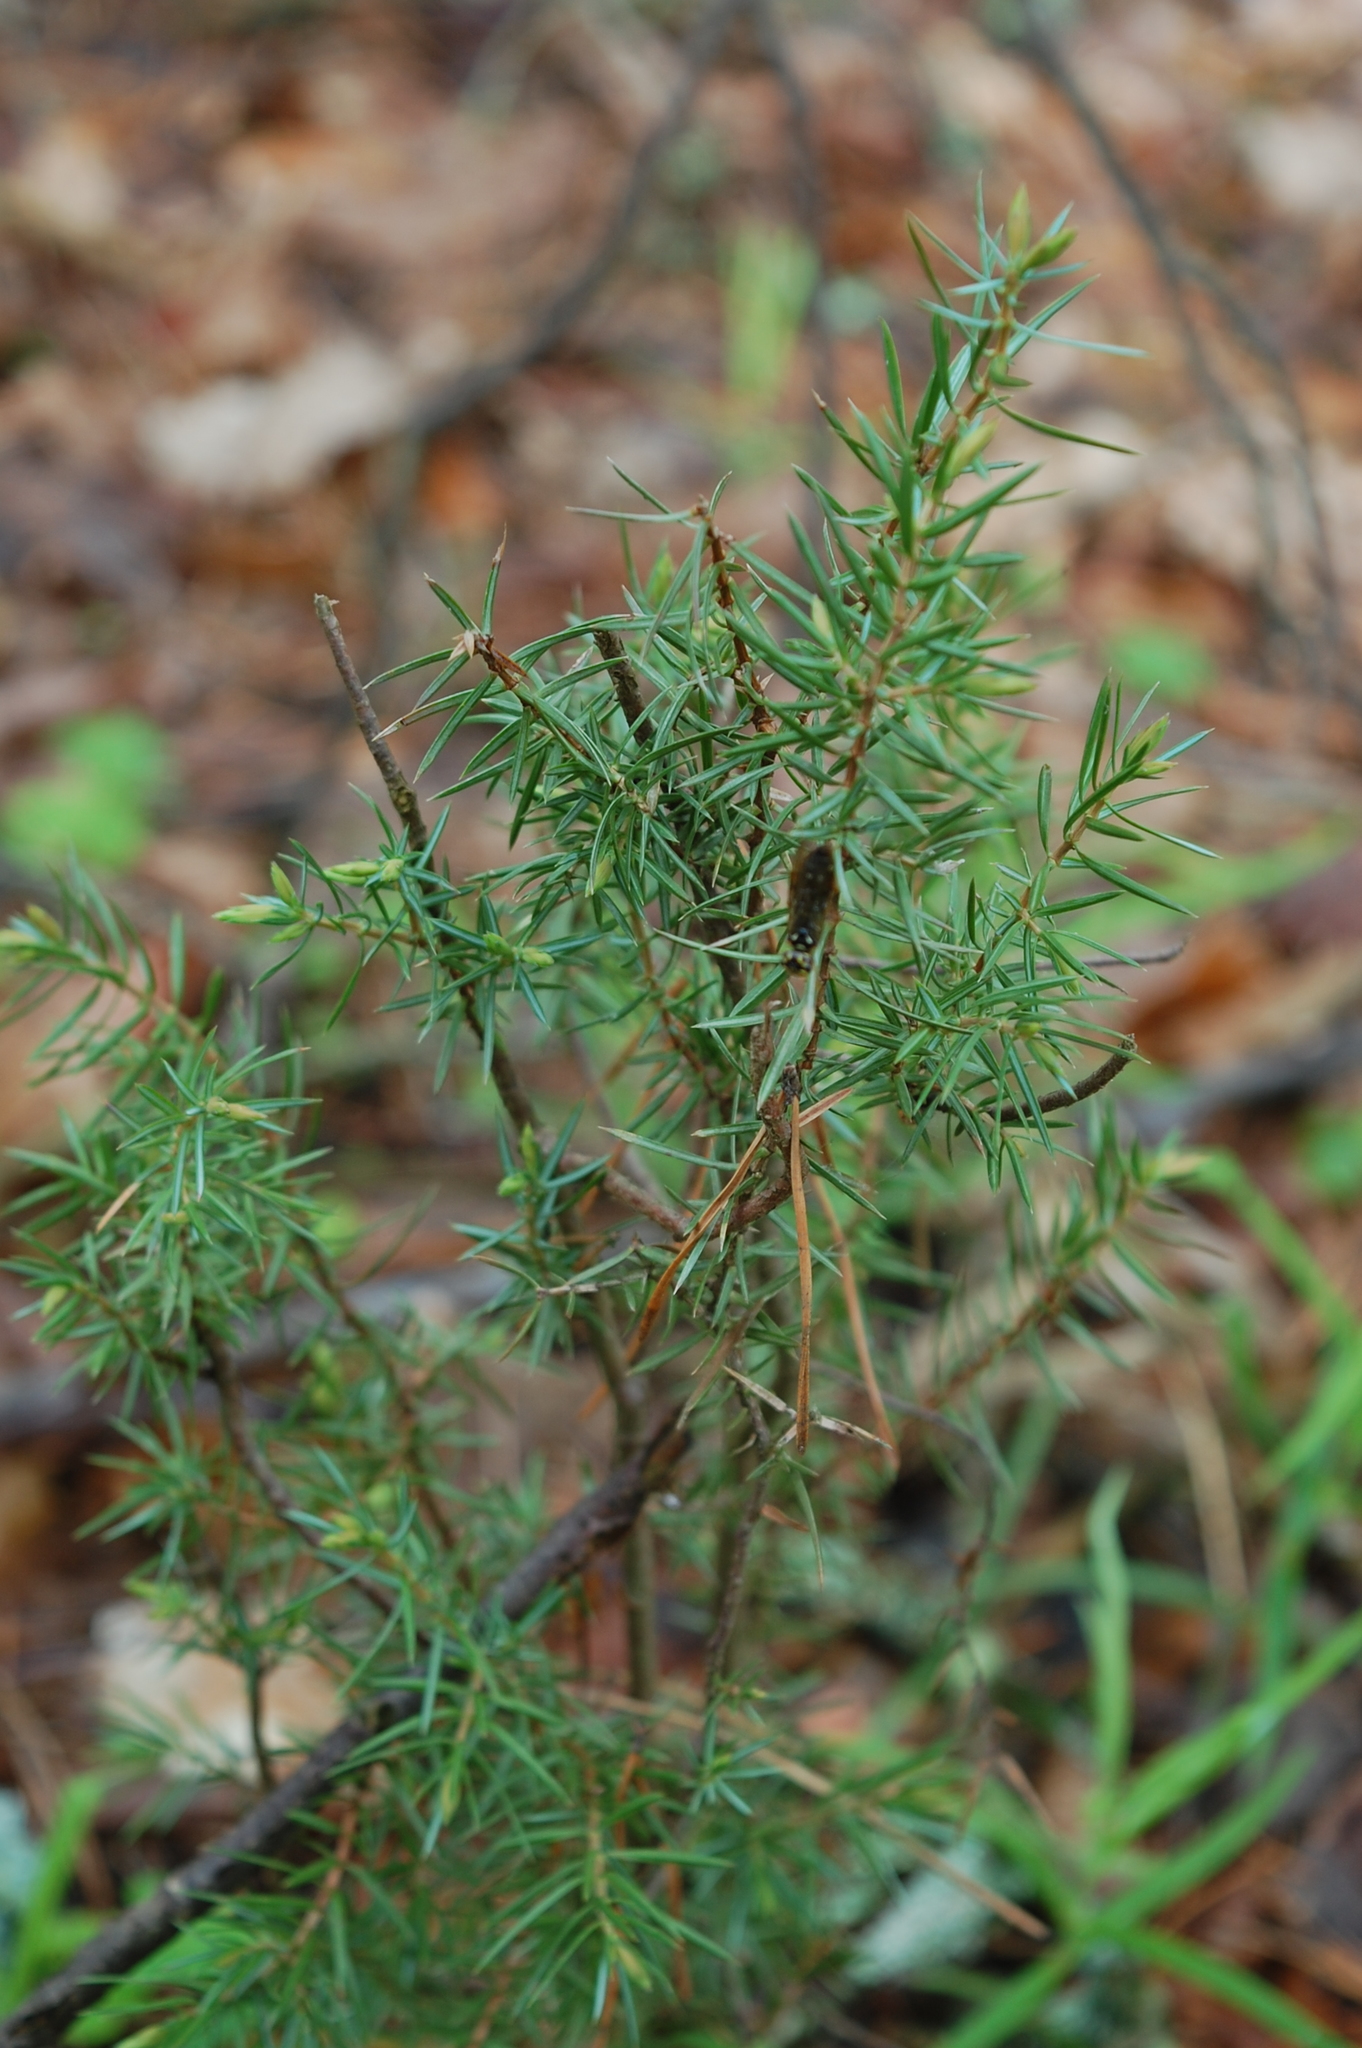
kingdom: Plantae
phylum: Tracheophyta
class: Pinopsida
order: Pinales
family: Cupressaceae
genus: Juniperus
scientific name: Juniperus communis
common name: Common juniper
